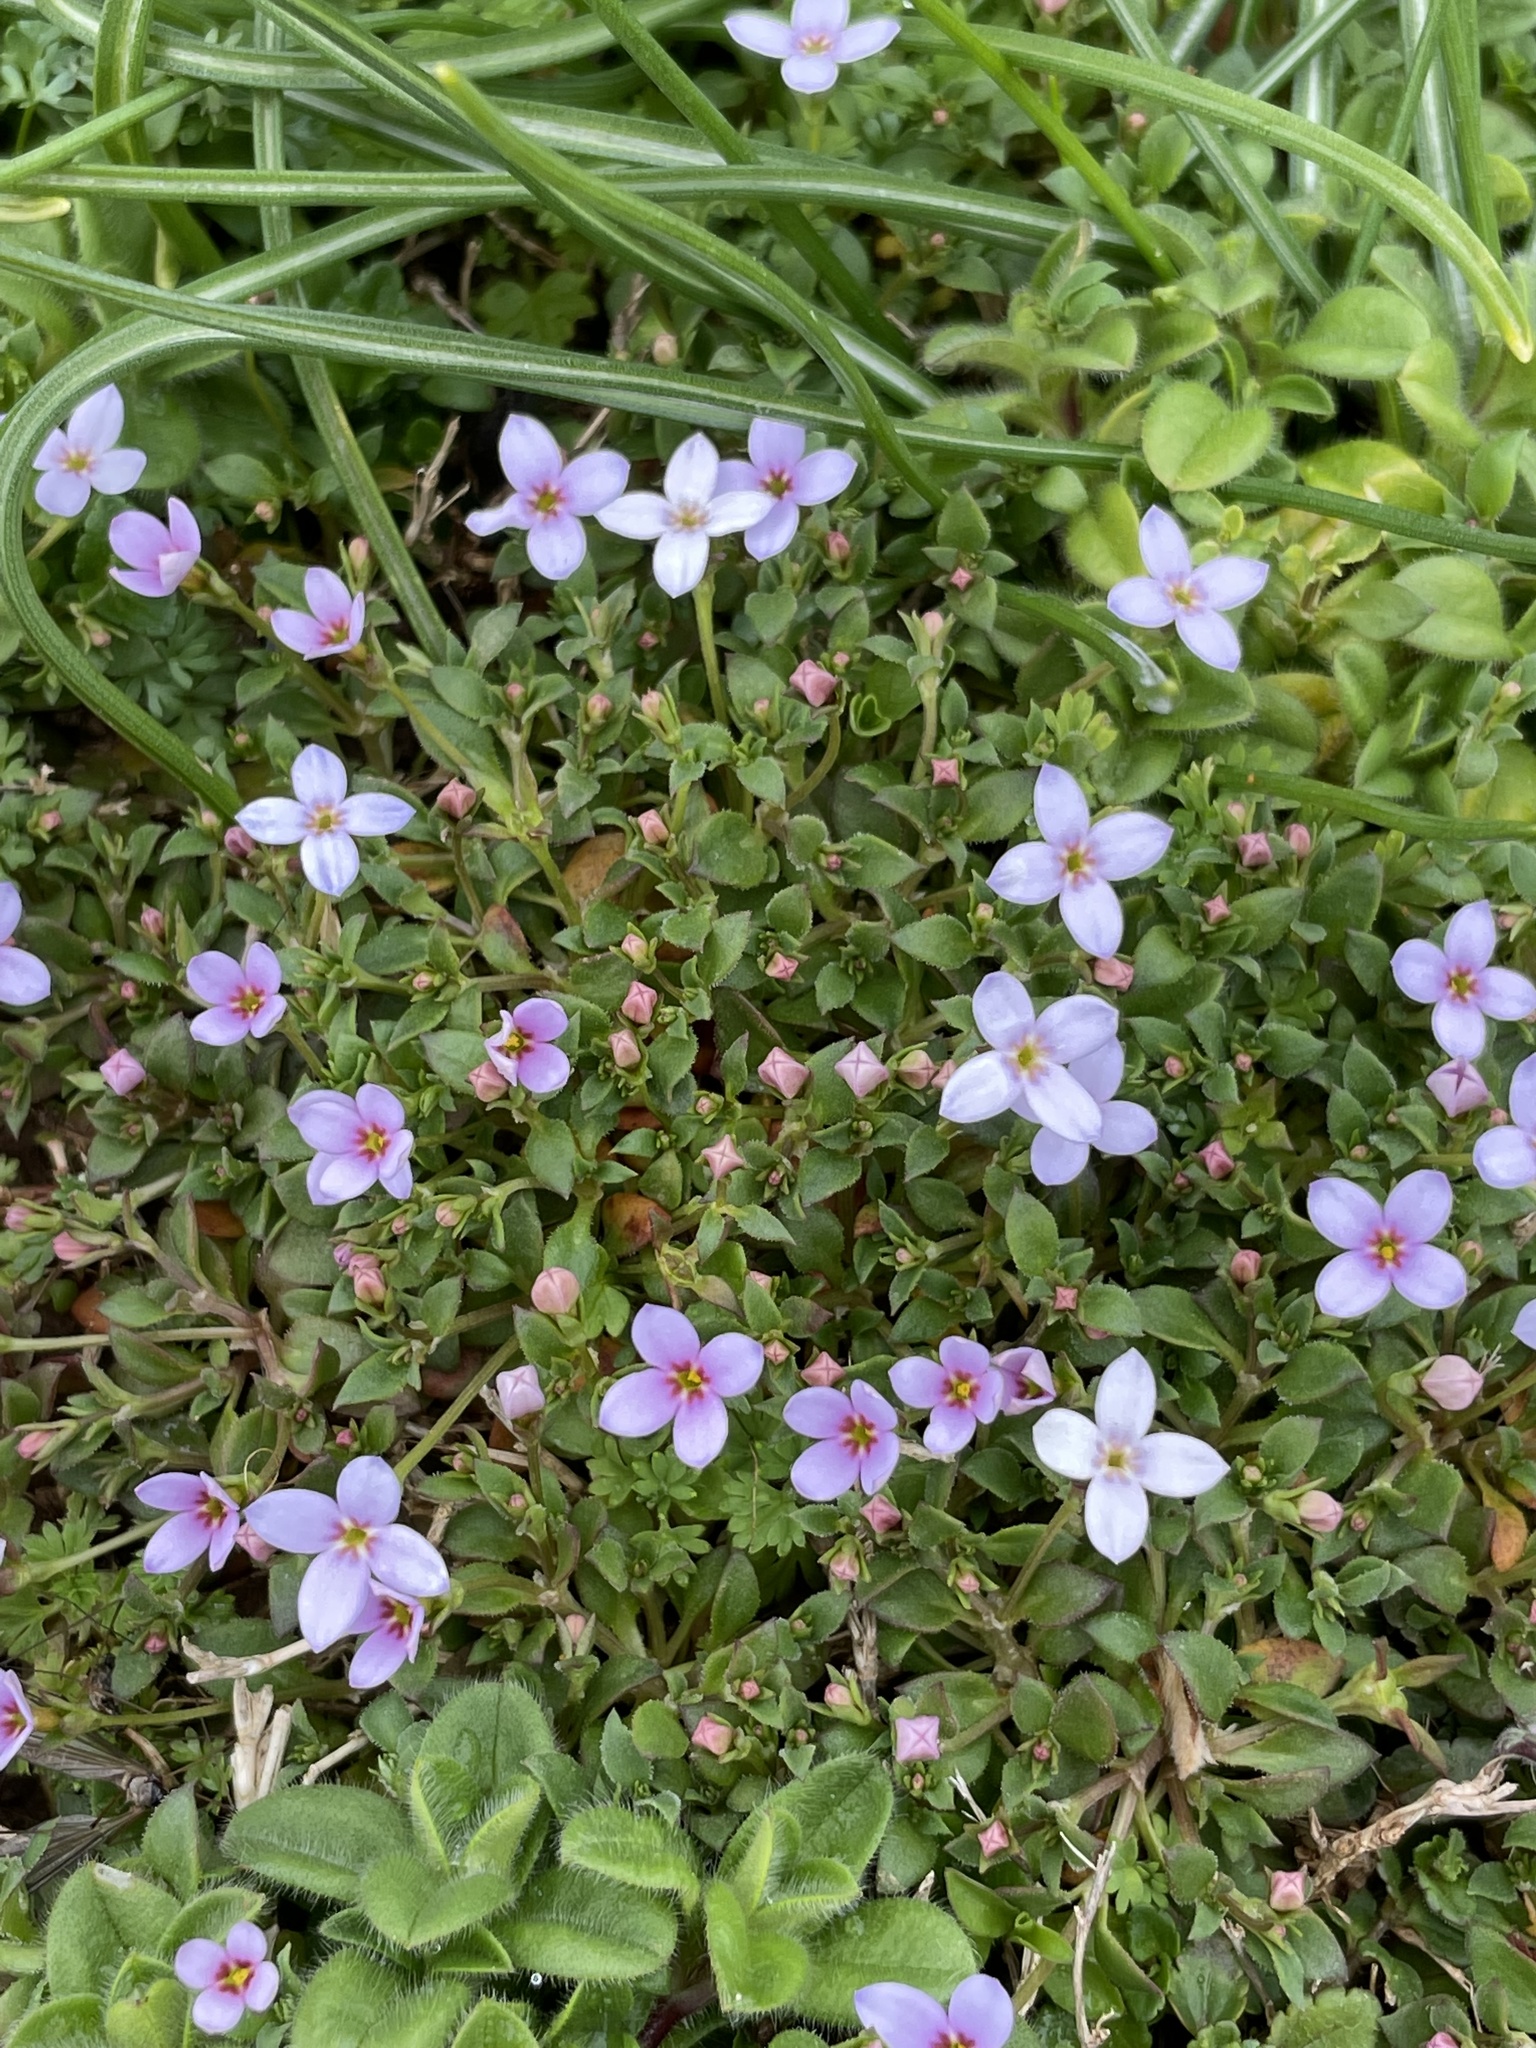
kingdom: Plantae
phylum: Tracheophyta
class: Magnoliopsida
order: Gentianales
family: Rubiaceae
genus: Houstonia
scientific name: Houstonia pusilla
